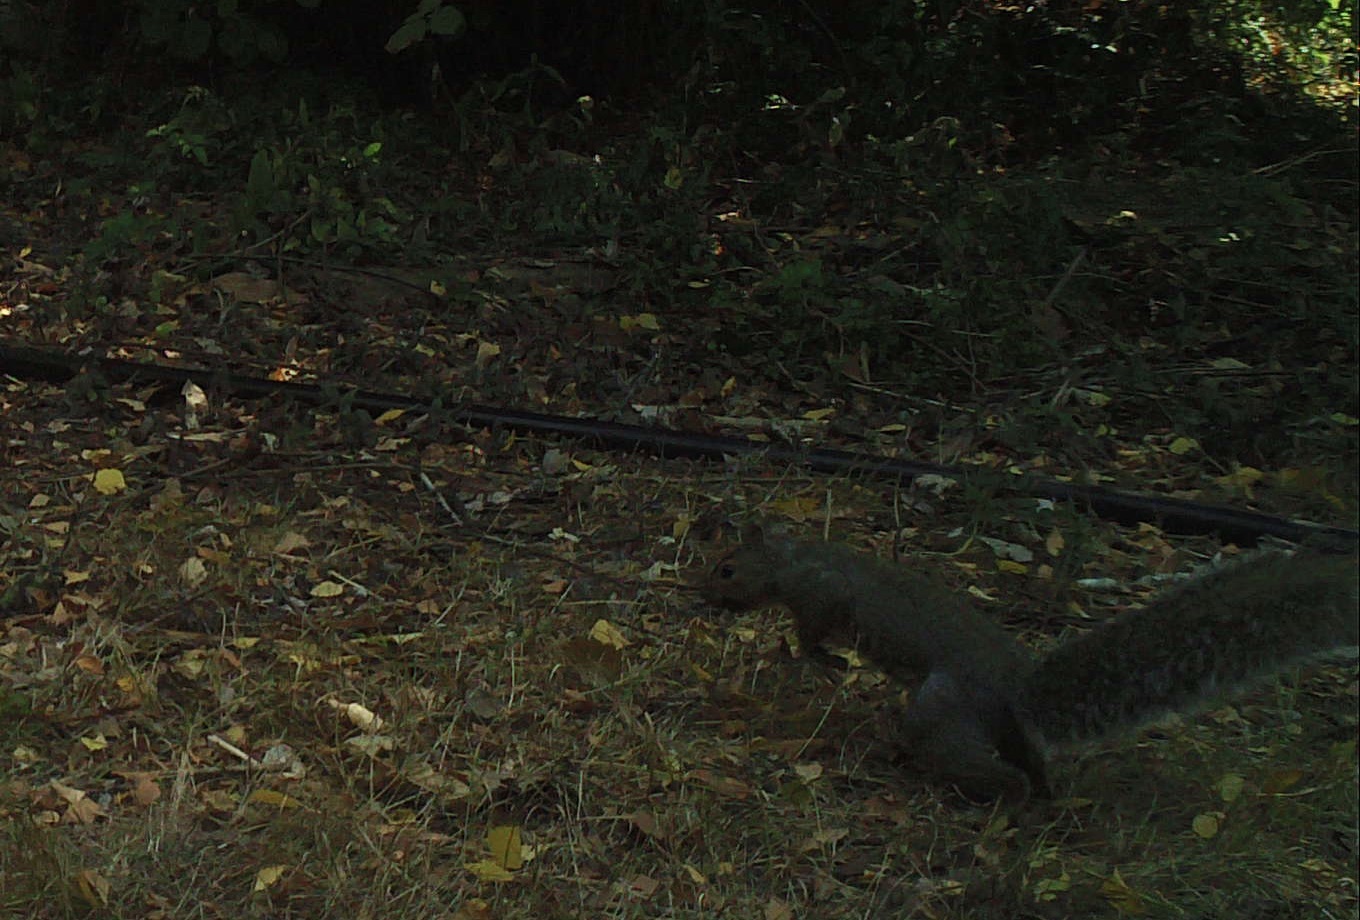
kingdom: Animalia
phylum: Chordata
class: Mammalia
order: Rodentia
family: Sciuridae
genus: Sciurus
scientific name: Sciurus carolinensis
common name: Eastern gray squirrel
